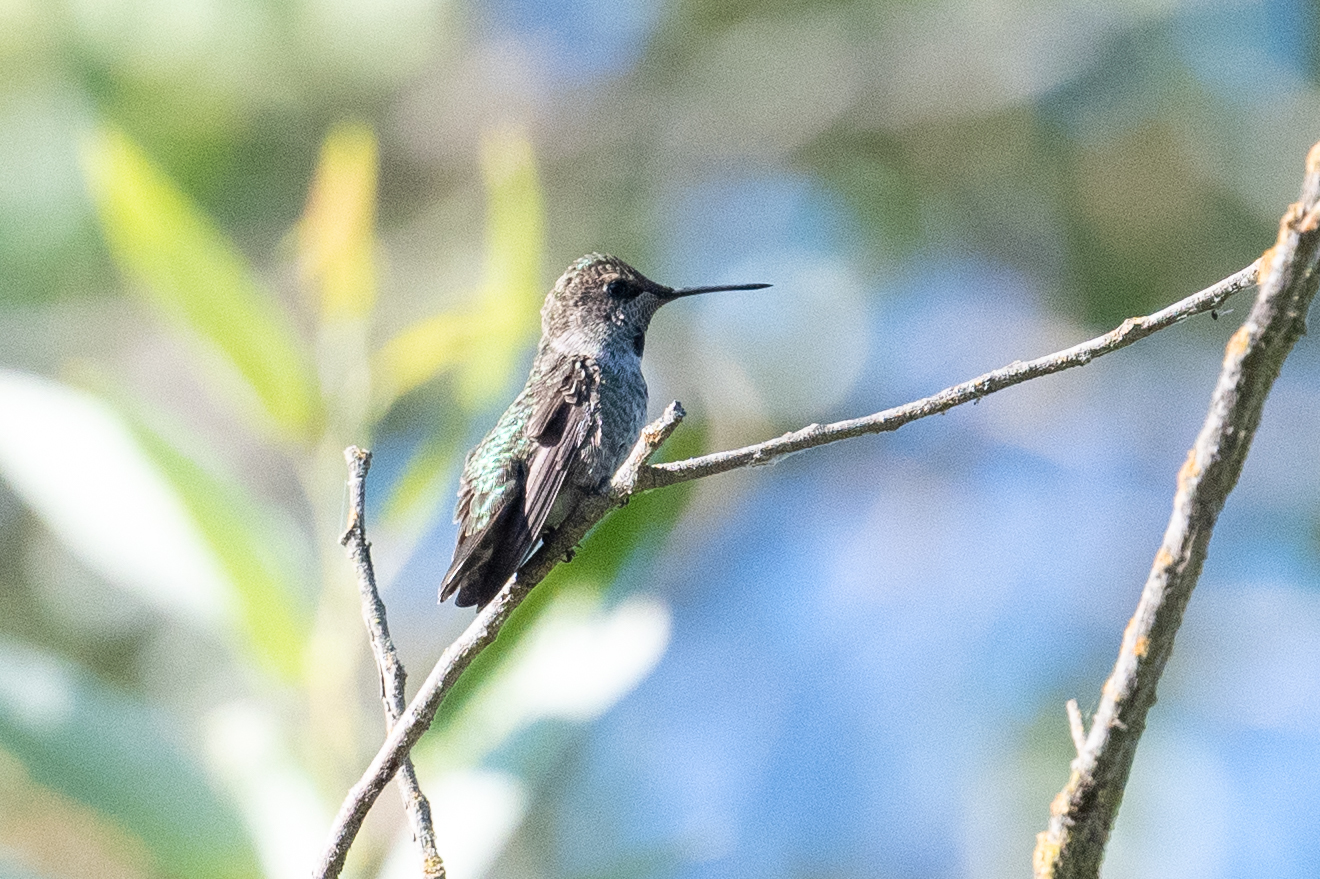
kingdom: Animalia
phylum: Chordata
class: Aves
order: Apodiformes
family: Trochilidae
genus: Calypte
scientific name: Calypte anna
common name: Anna's hummingbird
